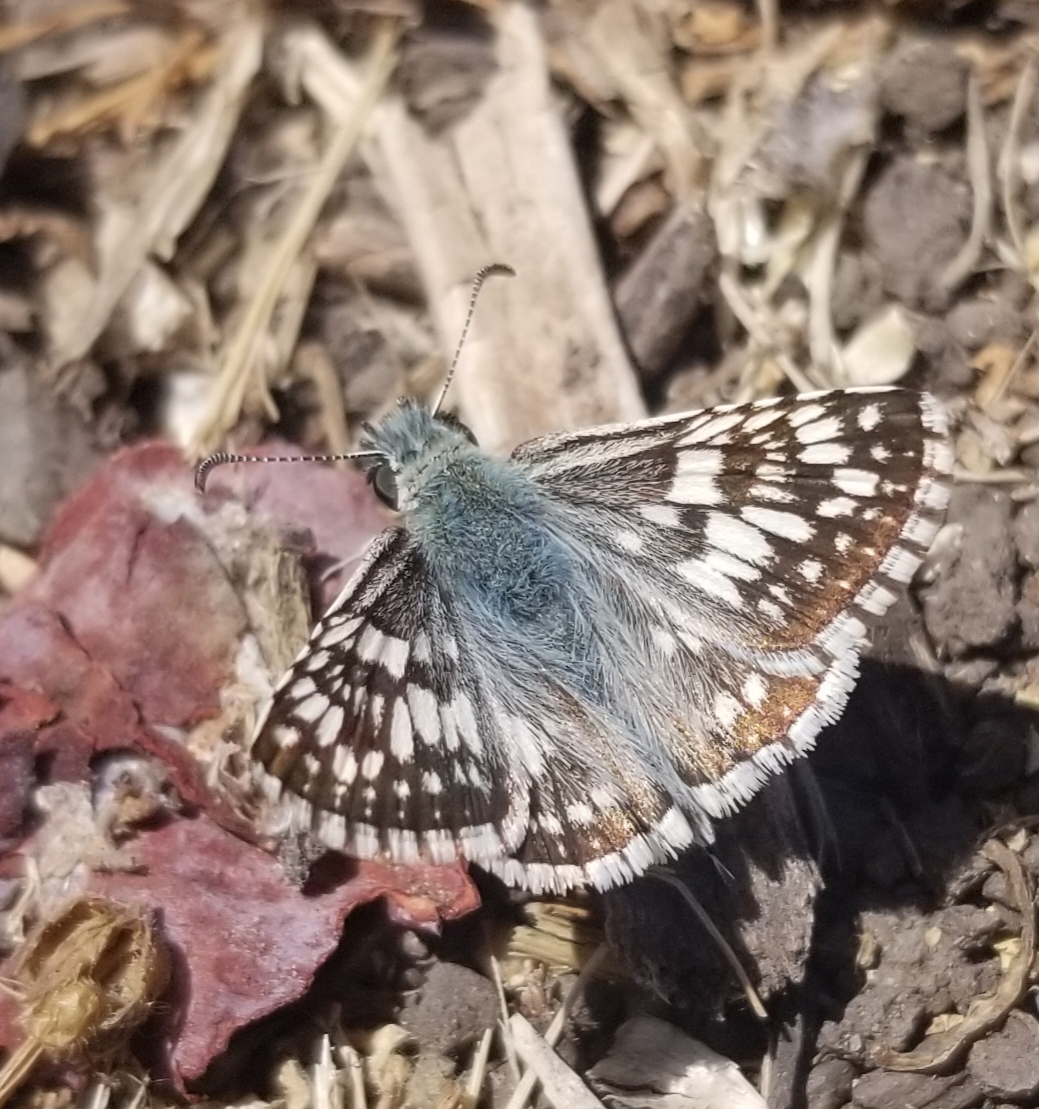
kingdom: Animalia
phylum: Arthropoda
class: Insecta
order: Lepidoptera
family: Hesperiidae
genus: Burnsius
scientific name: Burnsius communis
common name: Common checkered-skipper
